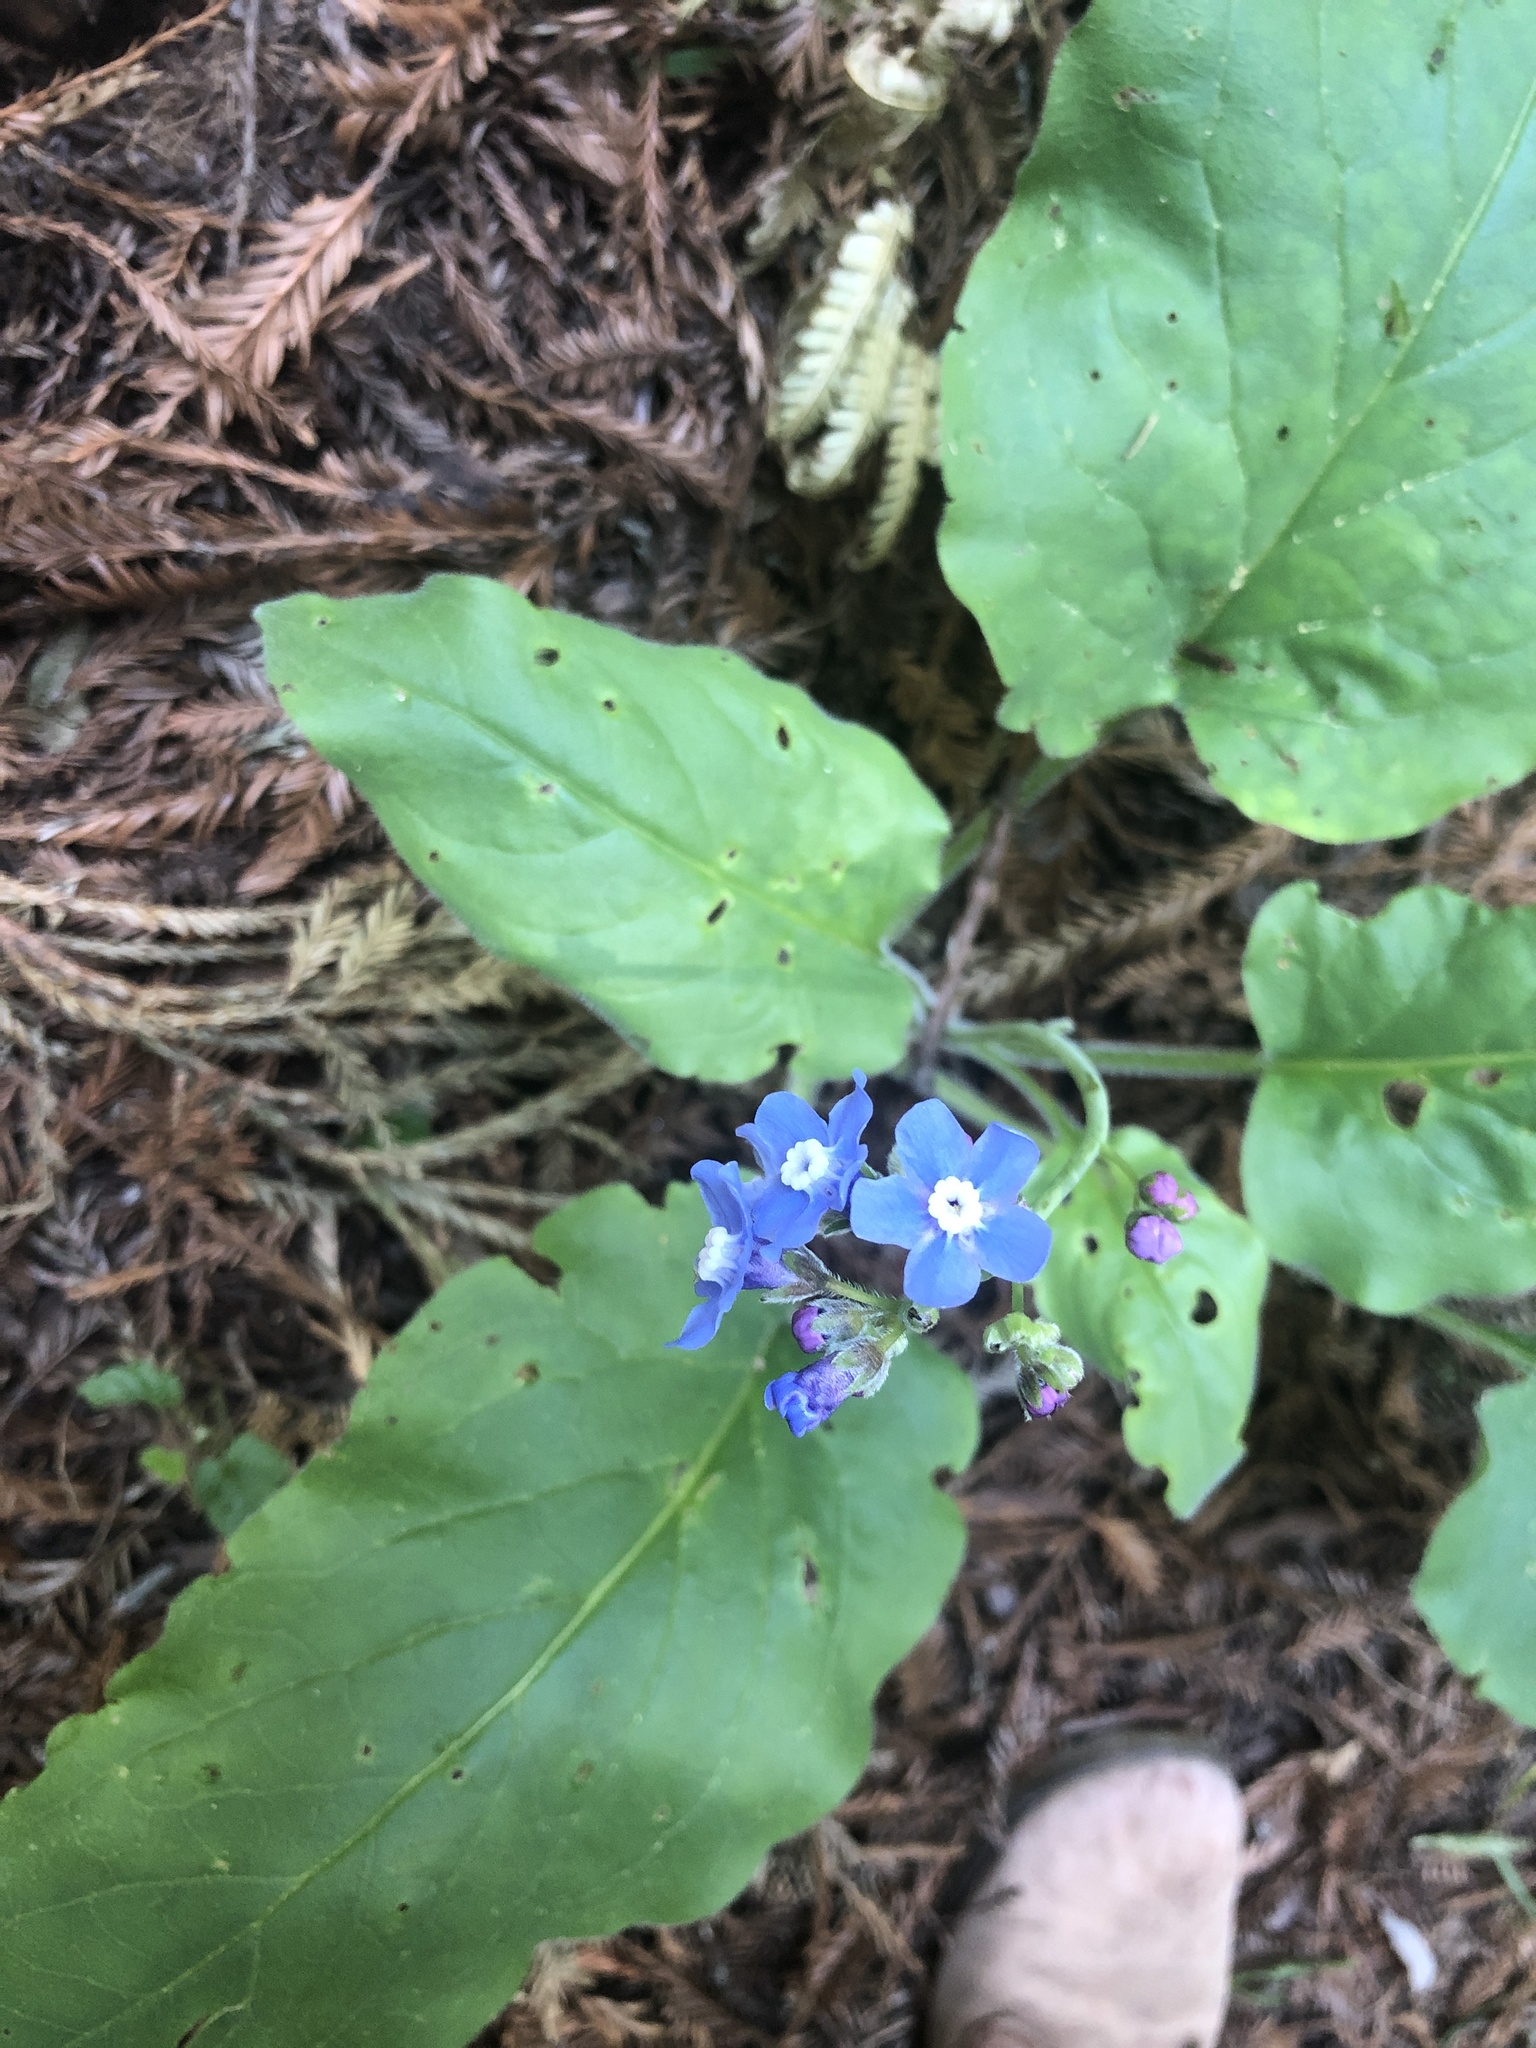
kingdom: Plantae
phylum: Tracheophyta
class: Magnoliopsida
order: Boraginales
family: Boraginaceae
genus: Adelinia
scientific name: Adelinia grande
